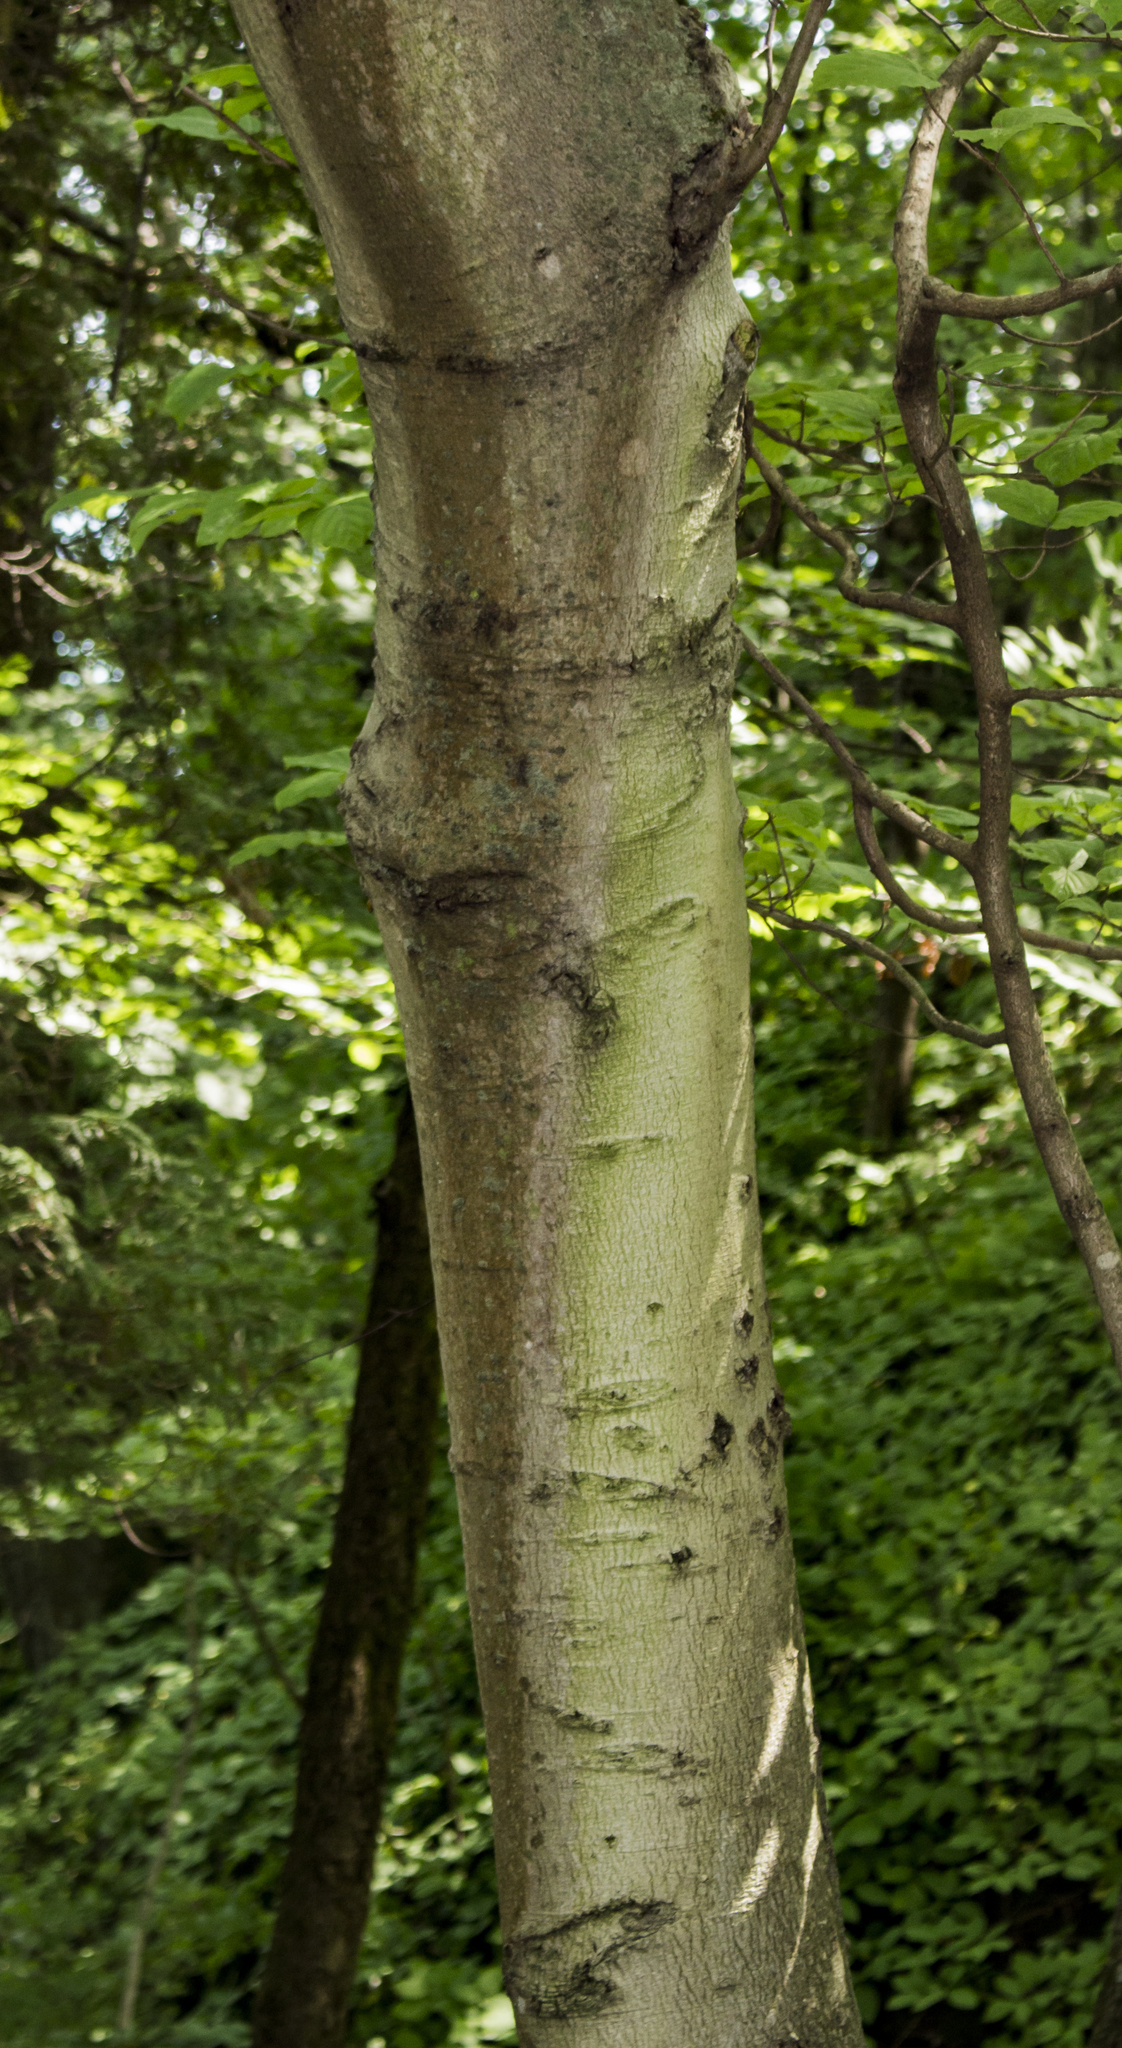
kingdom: Plantae
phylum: Tracheophyta
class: Magnoliopsida
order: Fagales
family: Fagaceae
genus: Fagus
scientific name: Fagus grandifolia
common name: American beech
